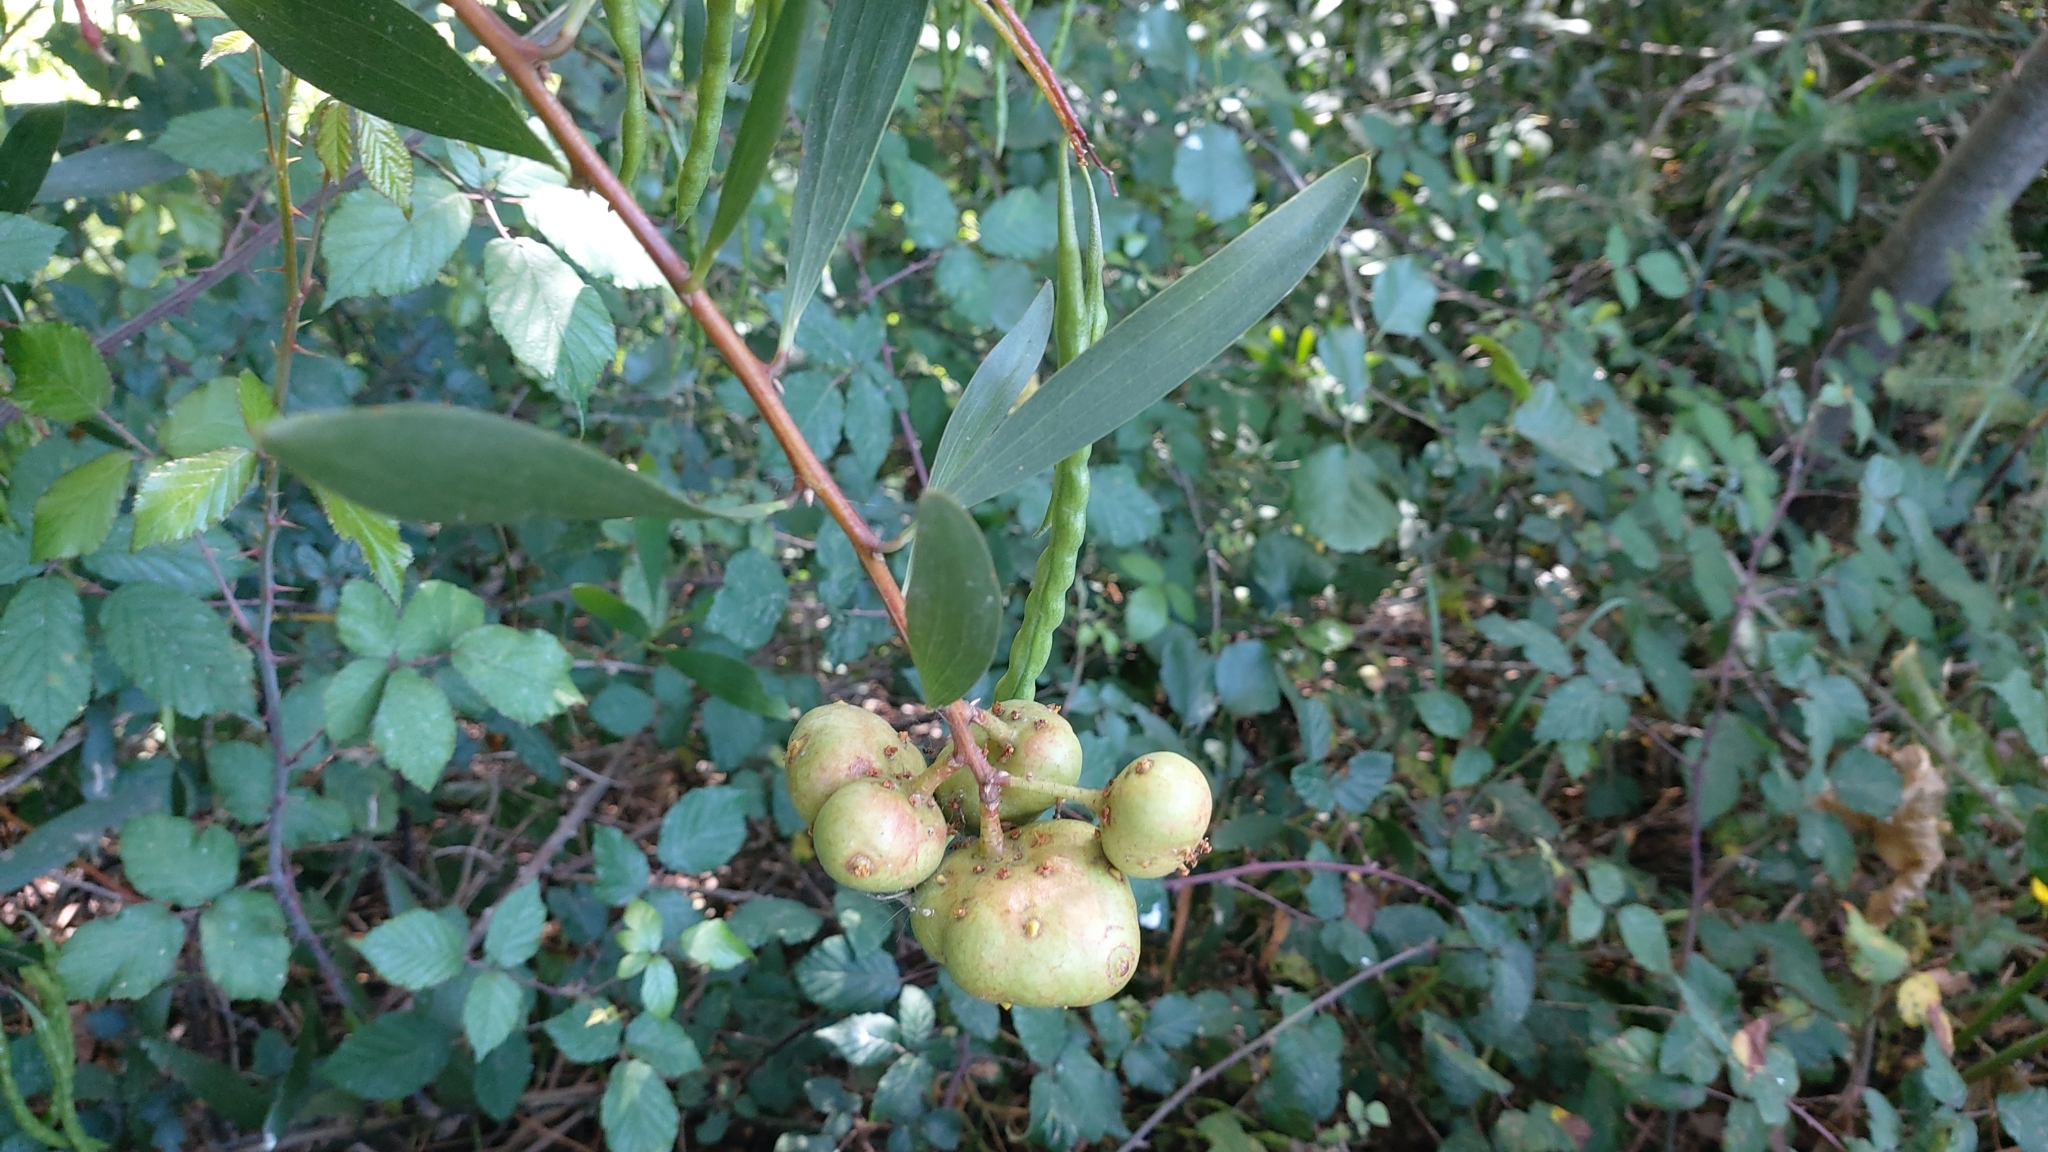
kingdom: Plantae
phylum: Tracheophyta
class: Magnoliopsida
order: Fabales
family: Fabaceae
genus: Acacia
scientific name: Acacia longifolia
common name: Sydney golden wattle
